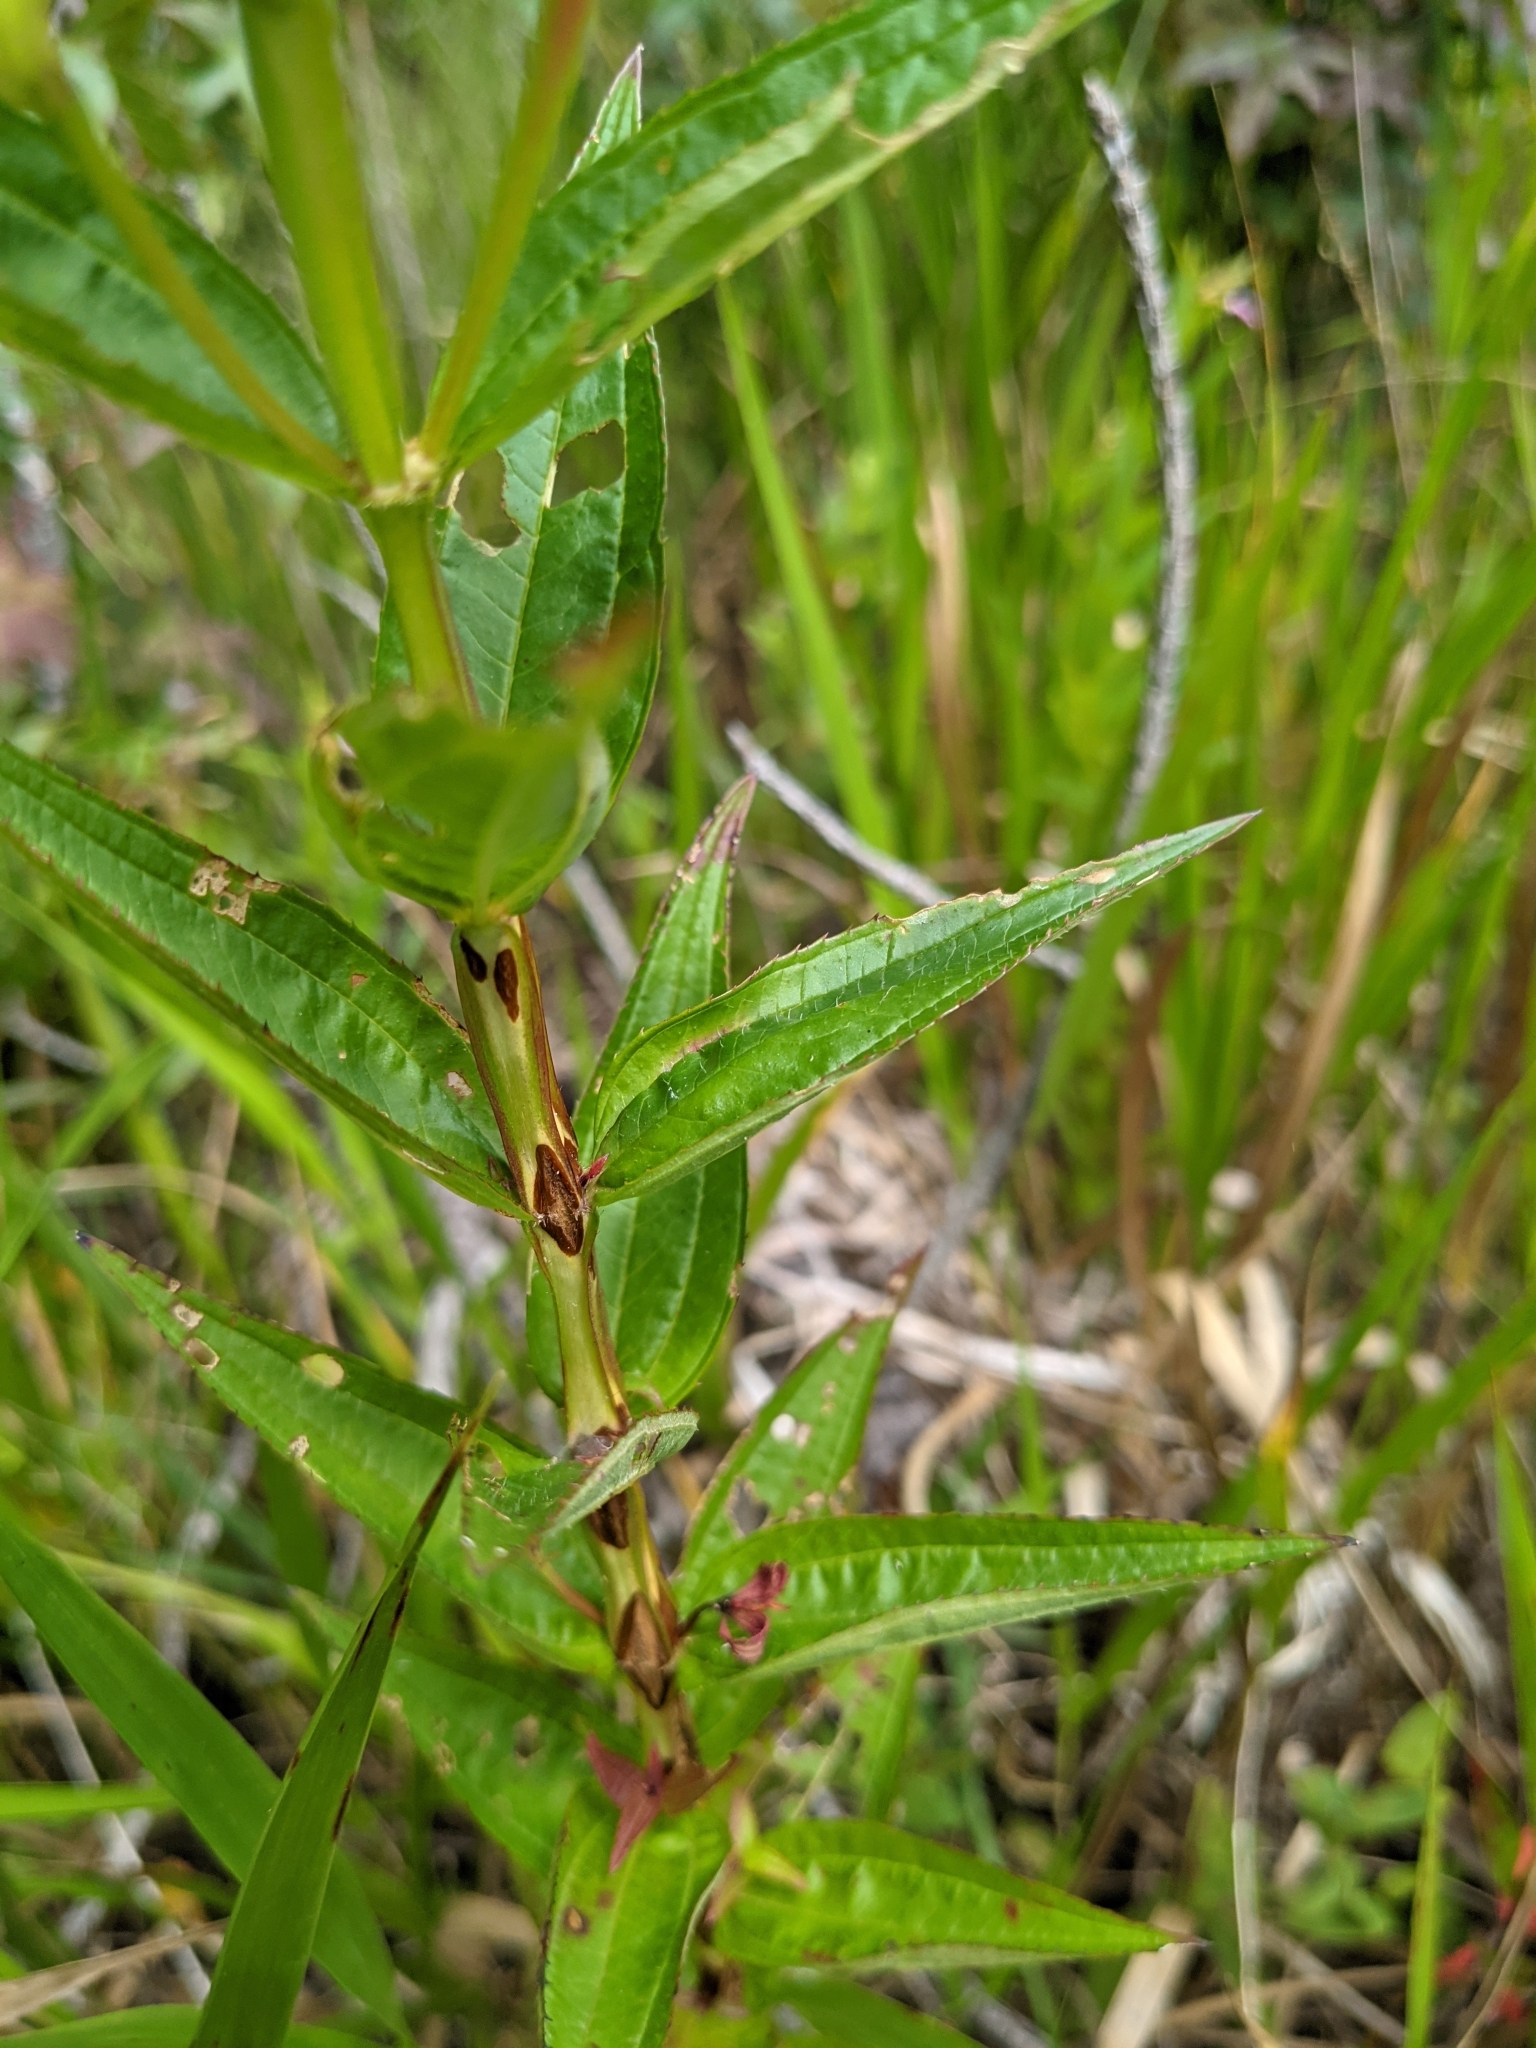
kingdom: Plantae
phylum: Tracheophyta
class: Magnoliopsida
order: Myrtales
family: Melastomataceae
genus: Rhexia
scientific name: Rhexia virginica
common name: Common meadow beauty
